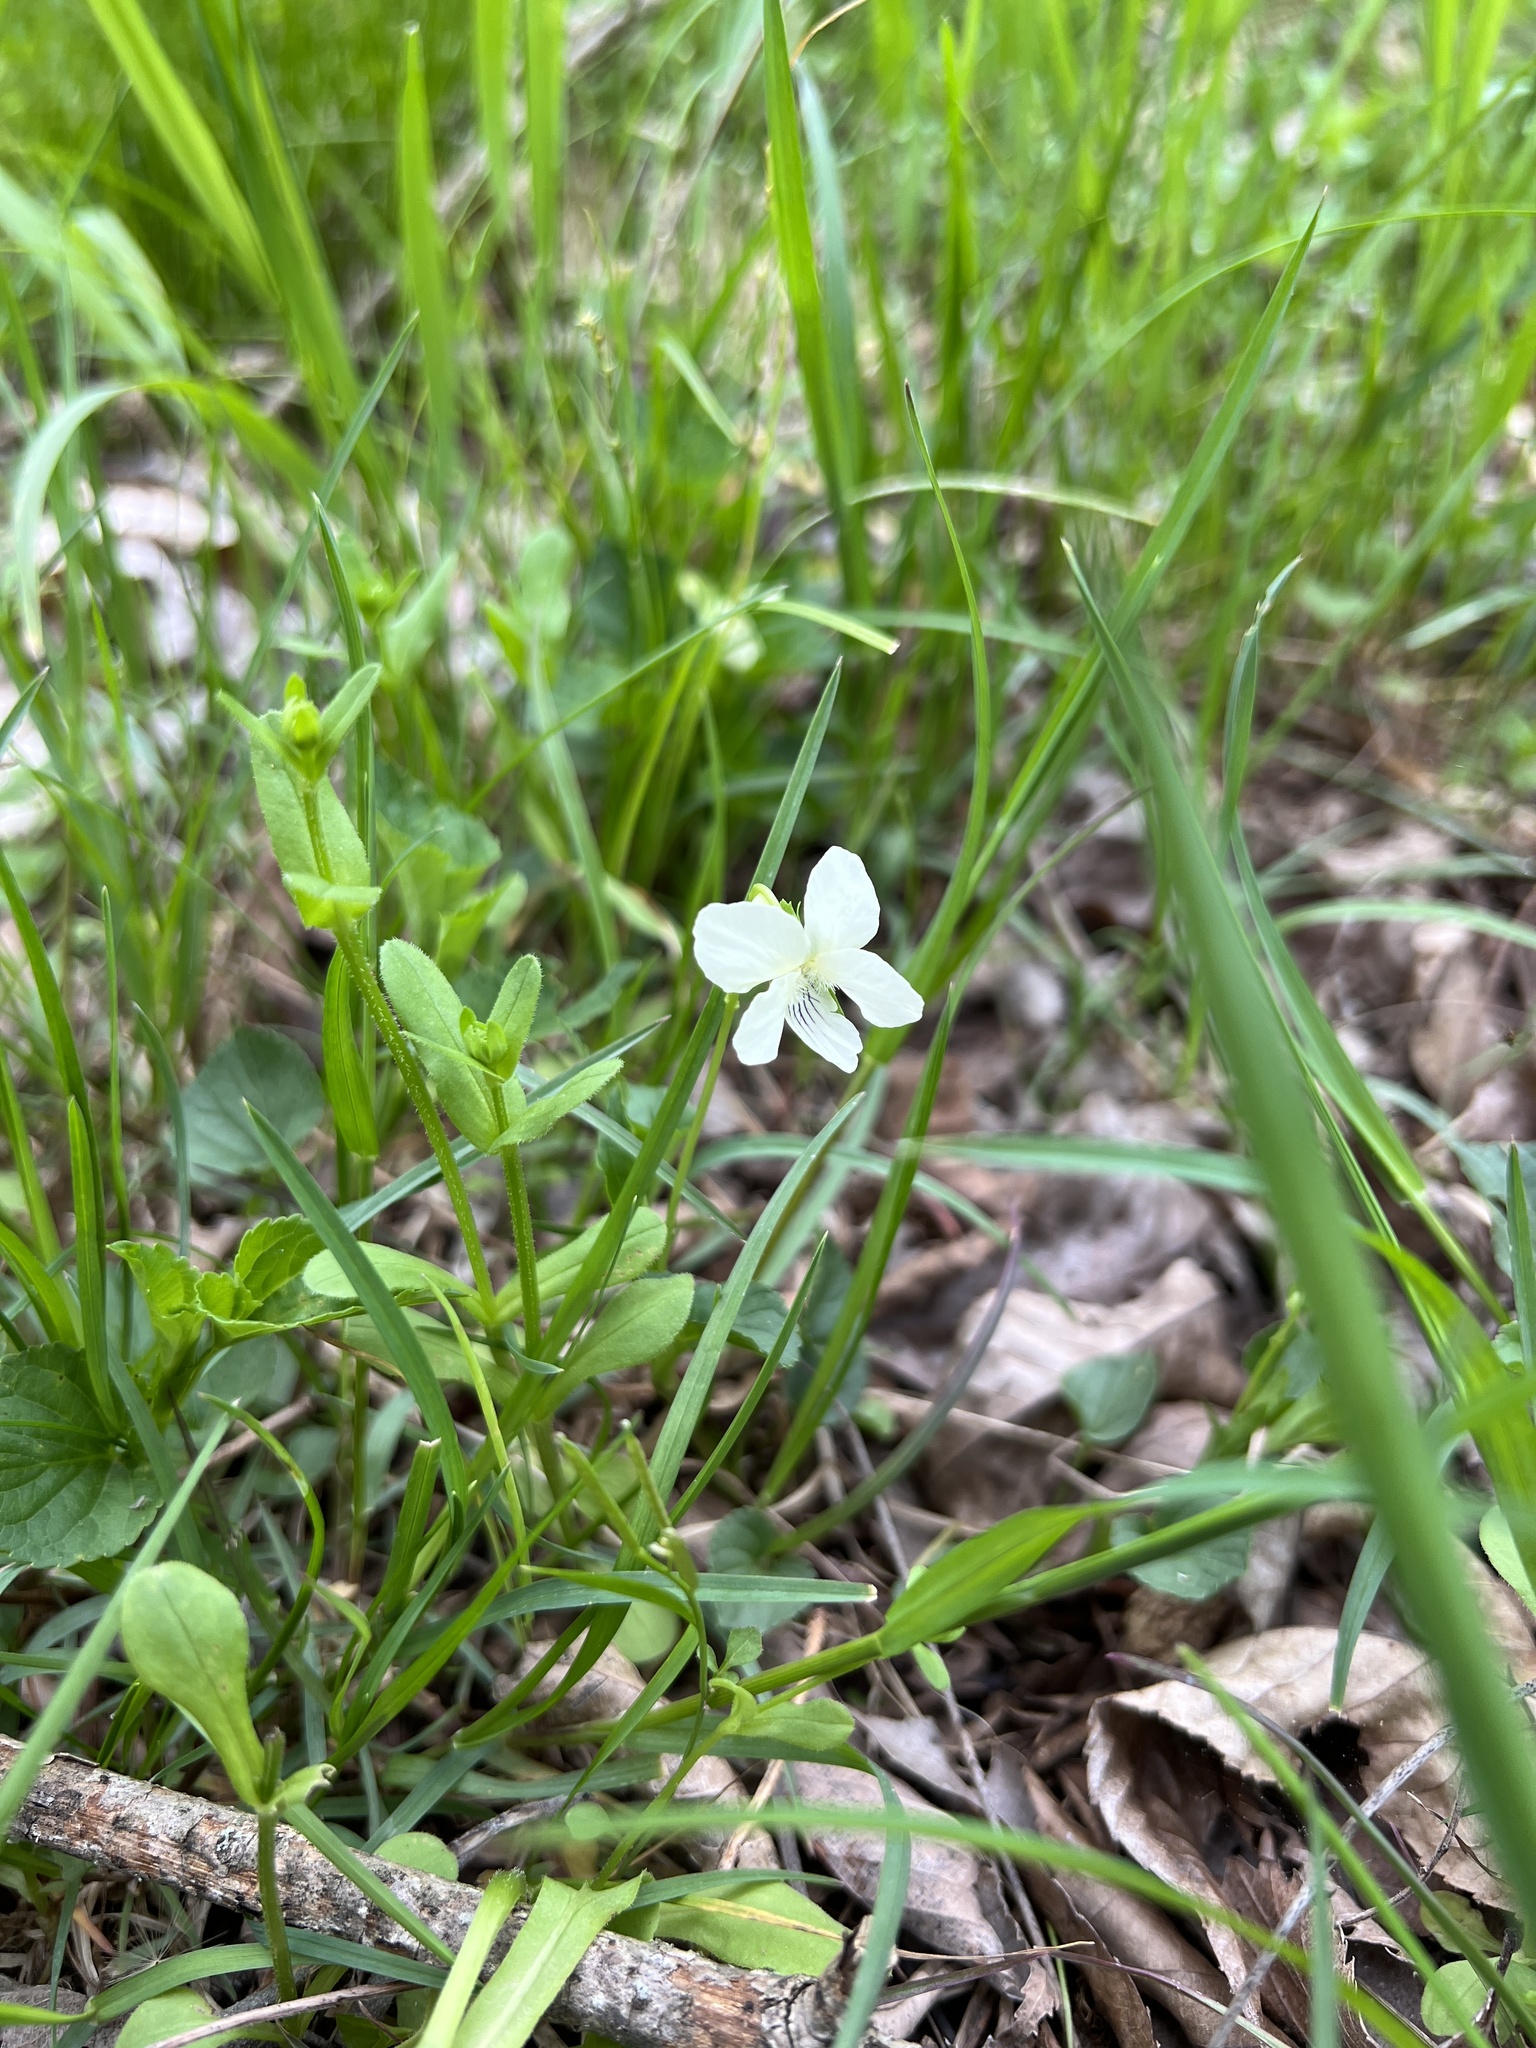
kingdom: Plantae
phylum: Tracheophyta
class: Magnoliopsida
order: Malpighiales
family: Violaceae
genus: Viola
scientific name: Viola striata
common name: Cream violet
